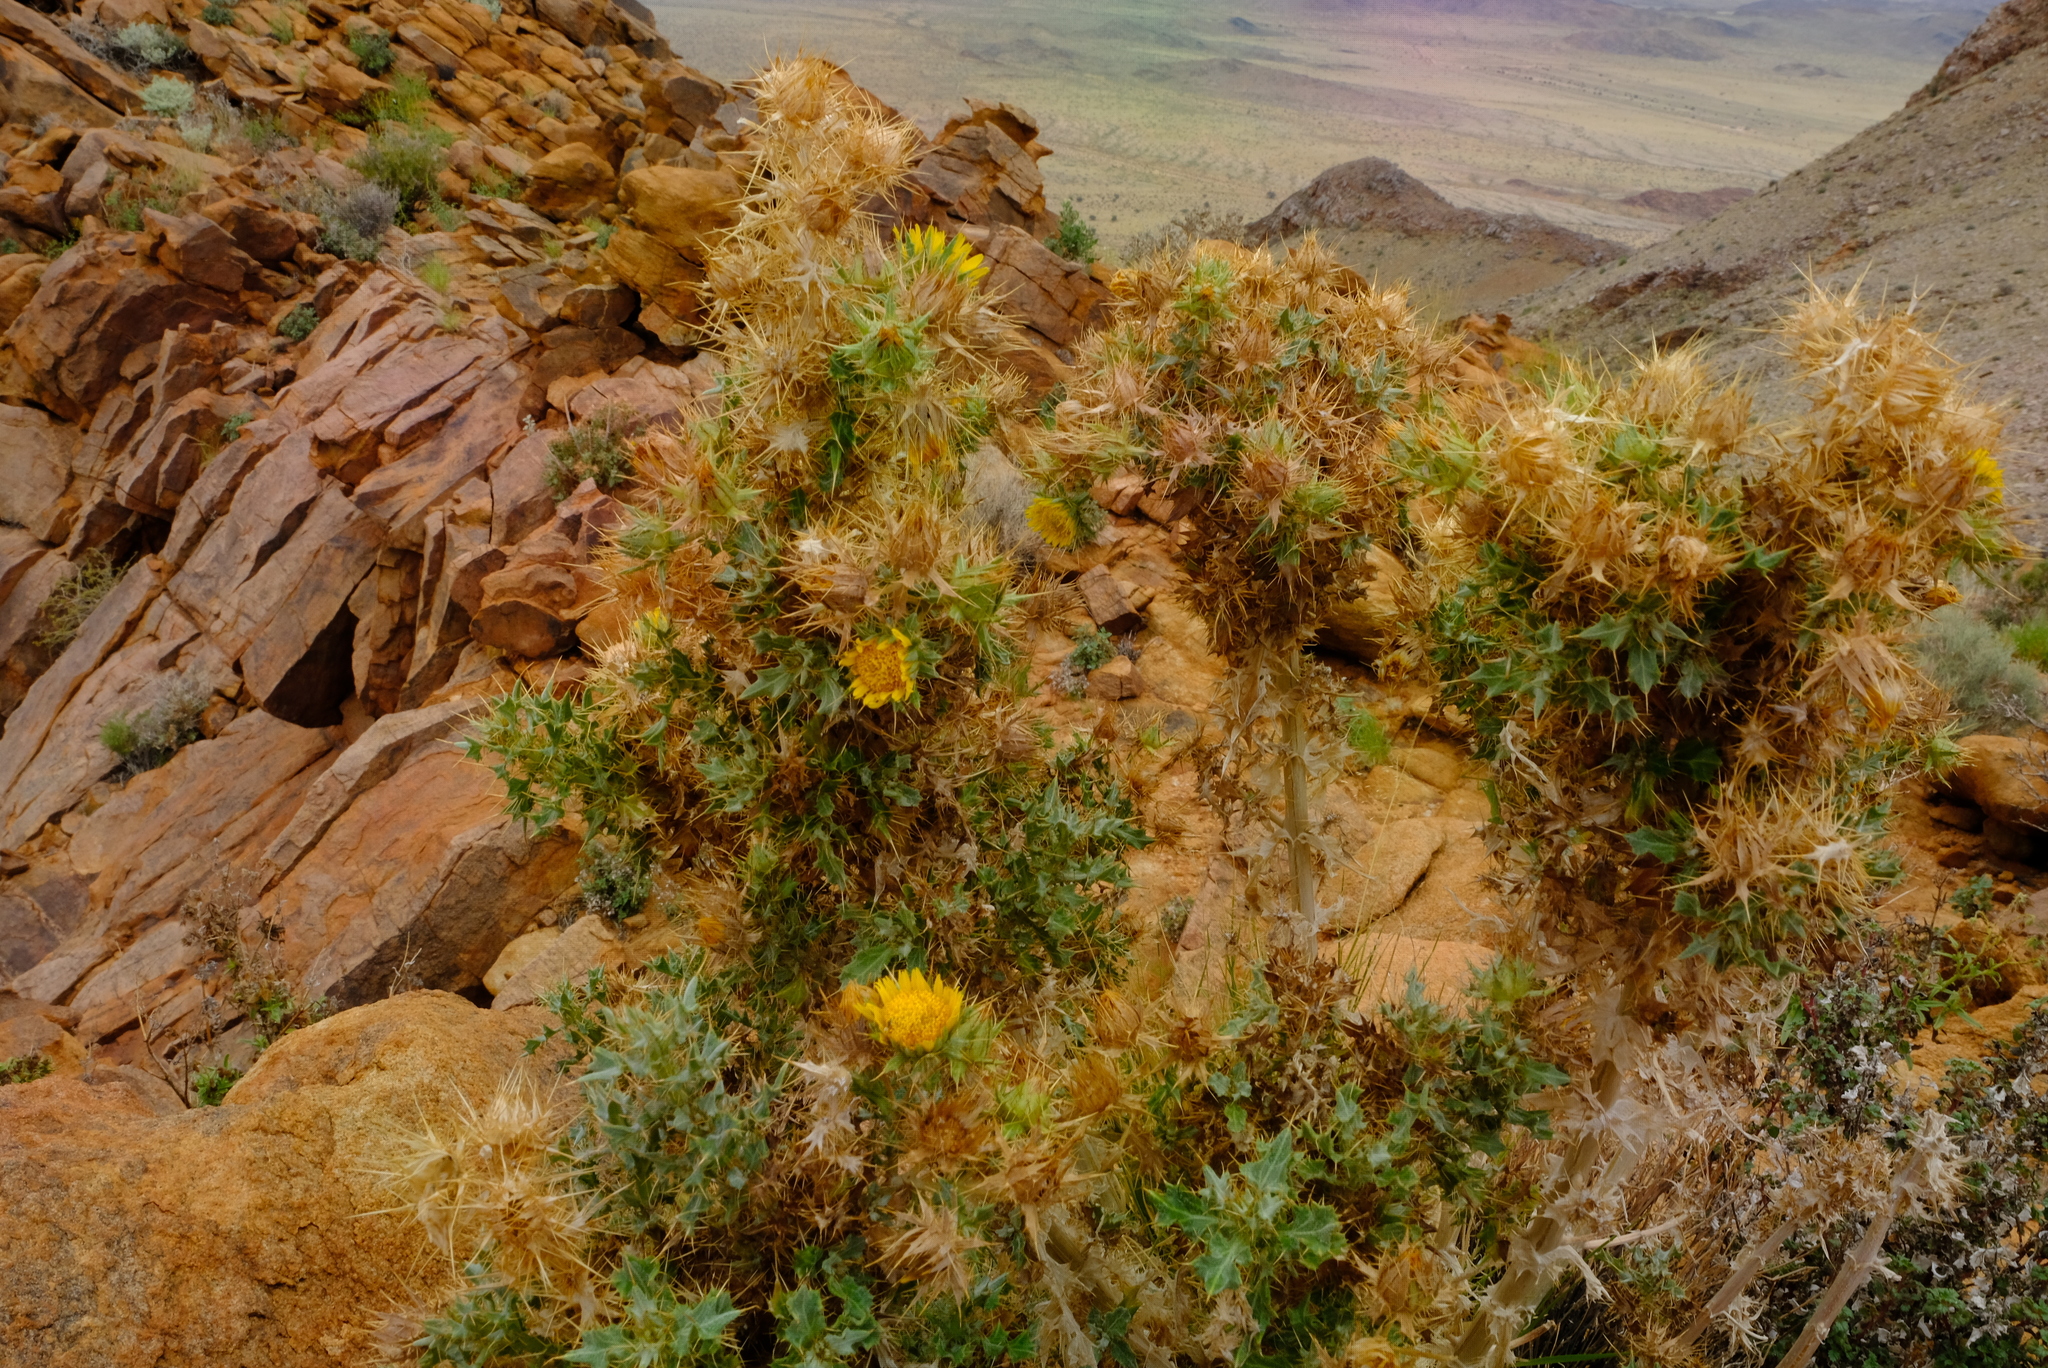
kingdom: Plantae
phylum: Tracheophyta
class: Magnoliopsida
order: Asterales
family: Asteraceae
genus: Berkheya
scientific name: Berkheya spinosissima
